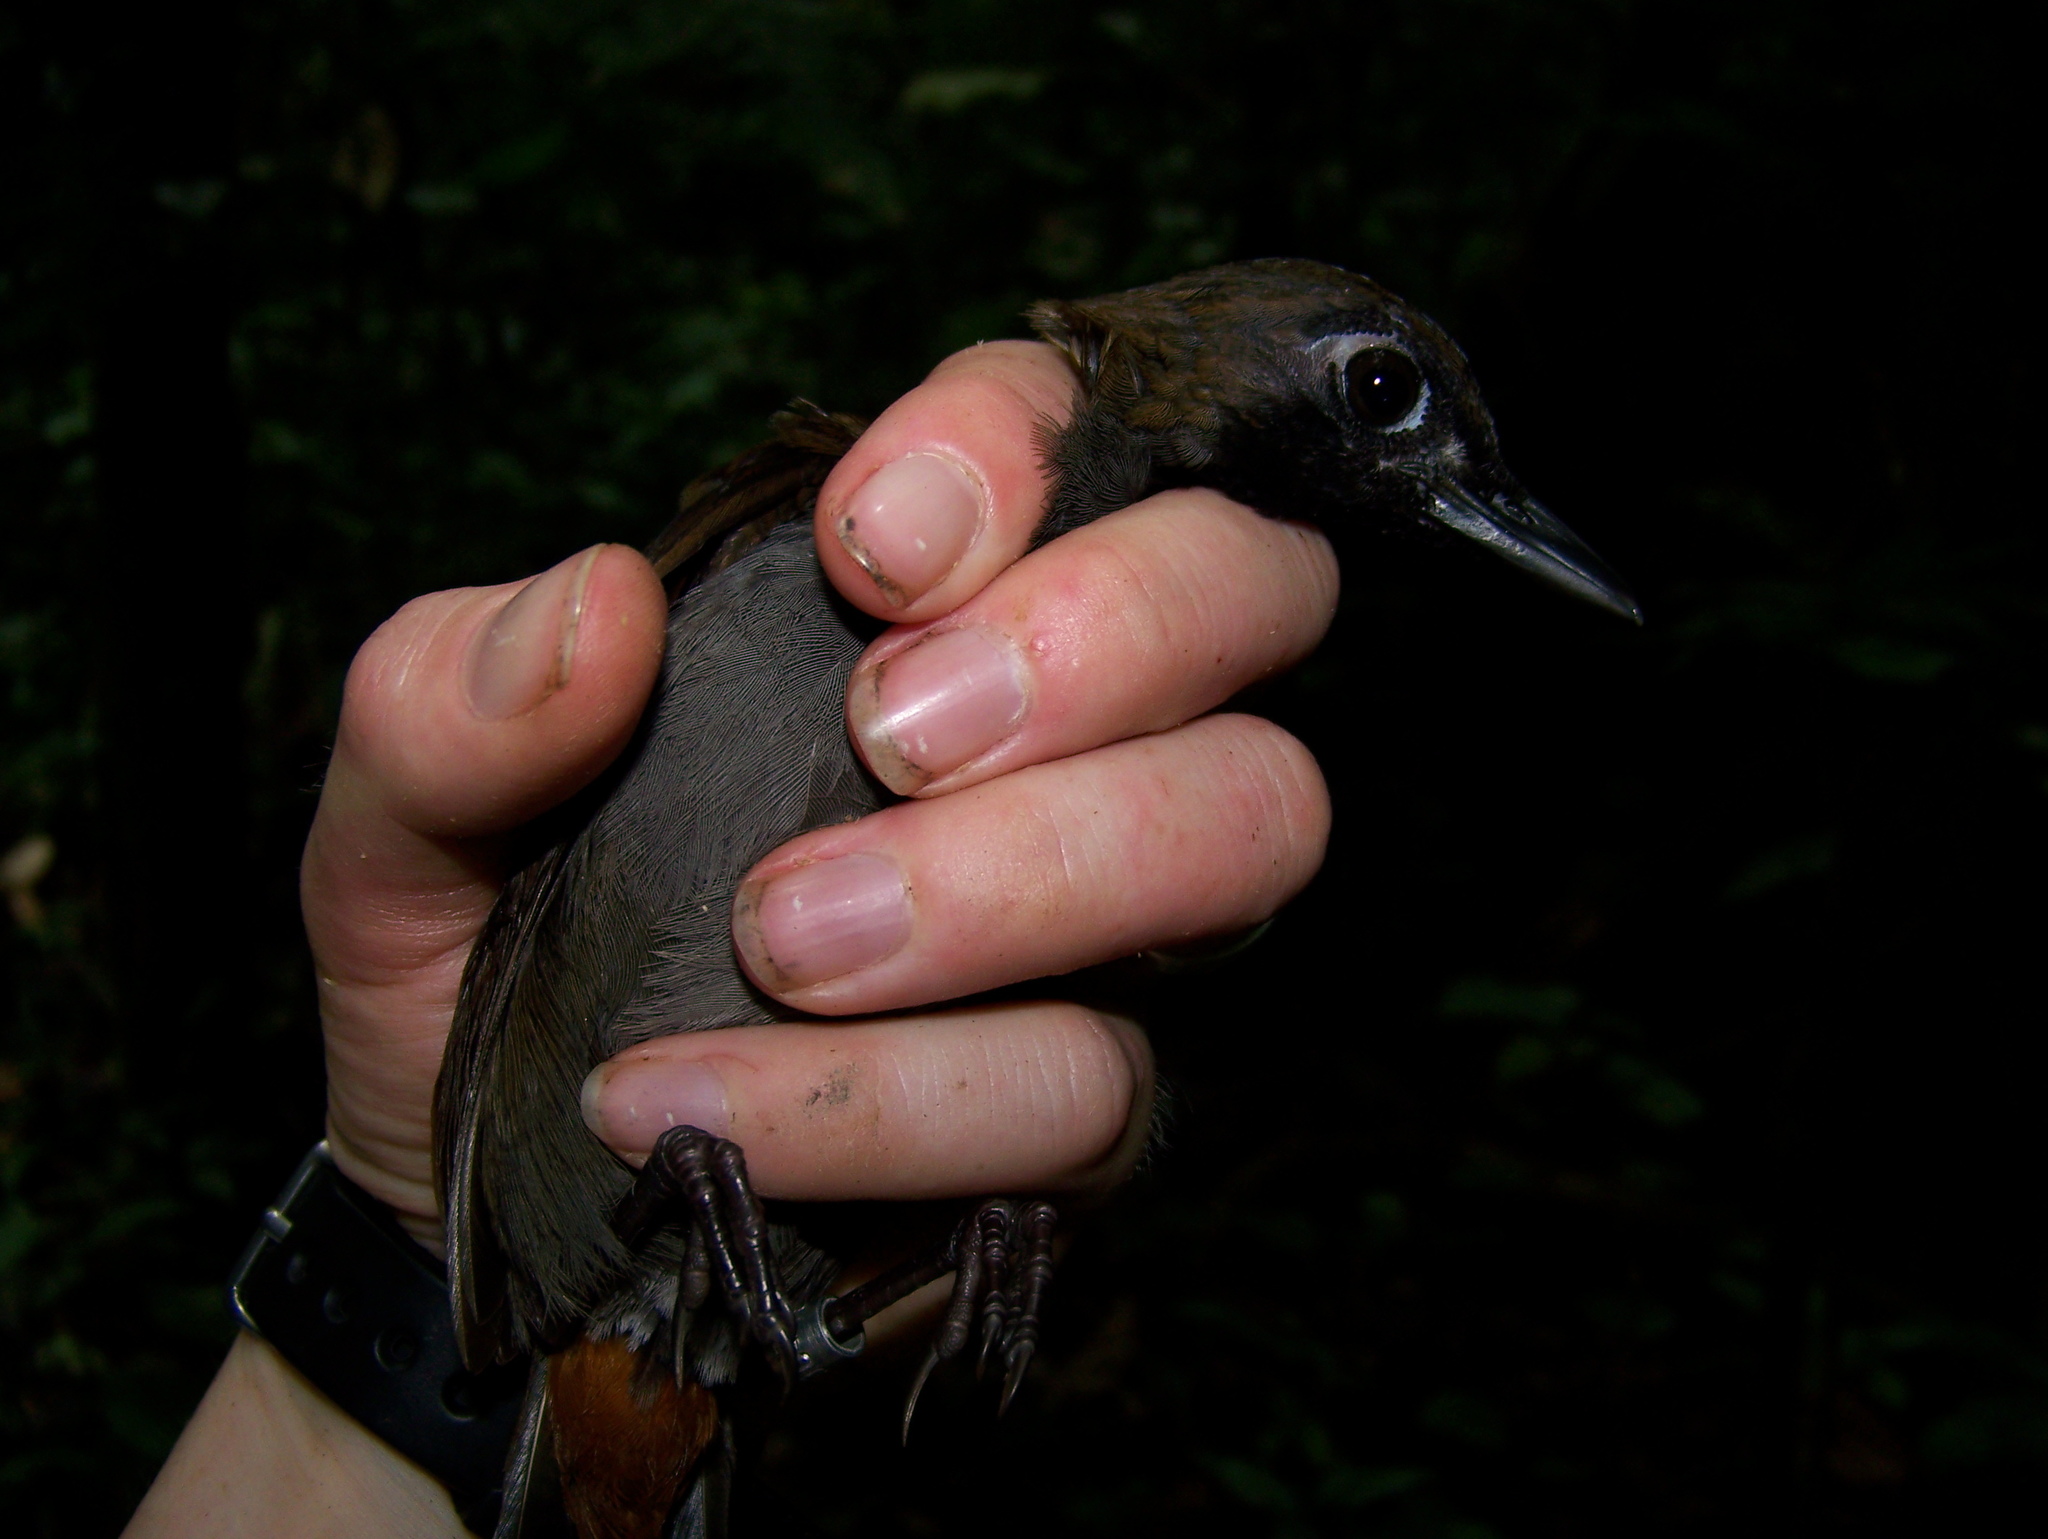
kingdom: Animalia
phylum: Chordata
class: Aves
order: Passeriformes
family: Formicariidae
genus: Formicarius
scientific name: Formicarius analis
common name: Black-faced antthrush
